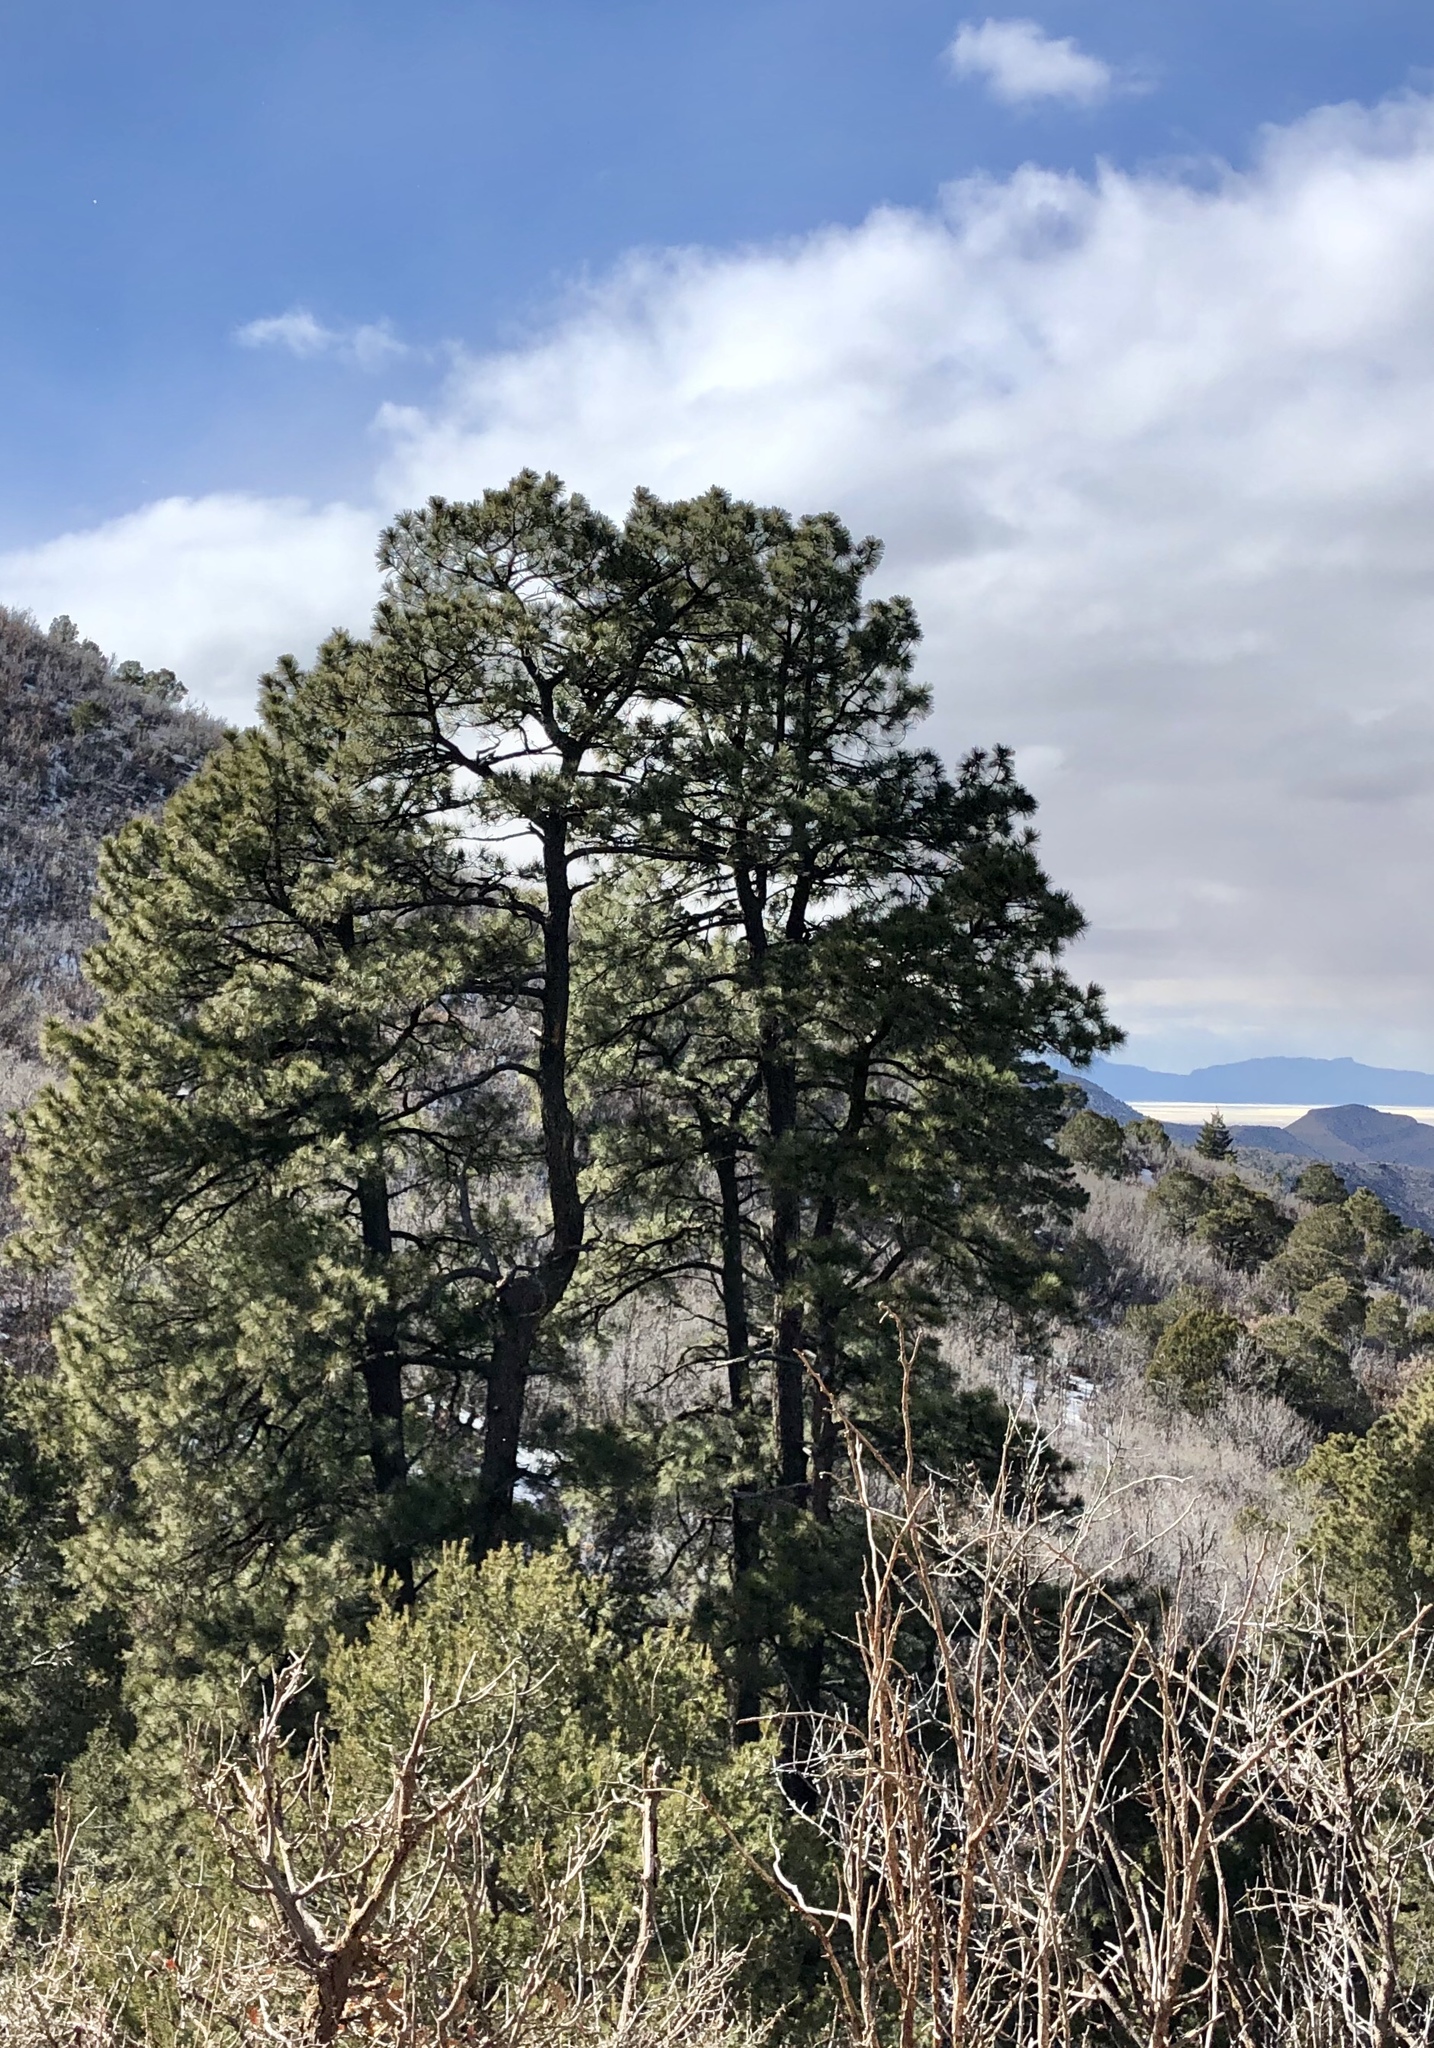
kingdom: Plantae
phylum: Tracheophyta
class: Pinopsida
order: Pinales
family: Pinaceae
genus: Pinus
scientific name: Pinus ponderosa
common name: Western yellow-pine
